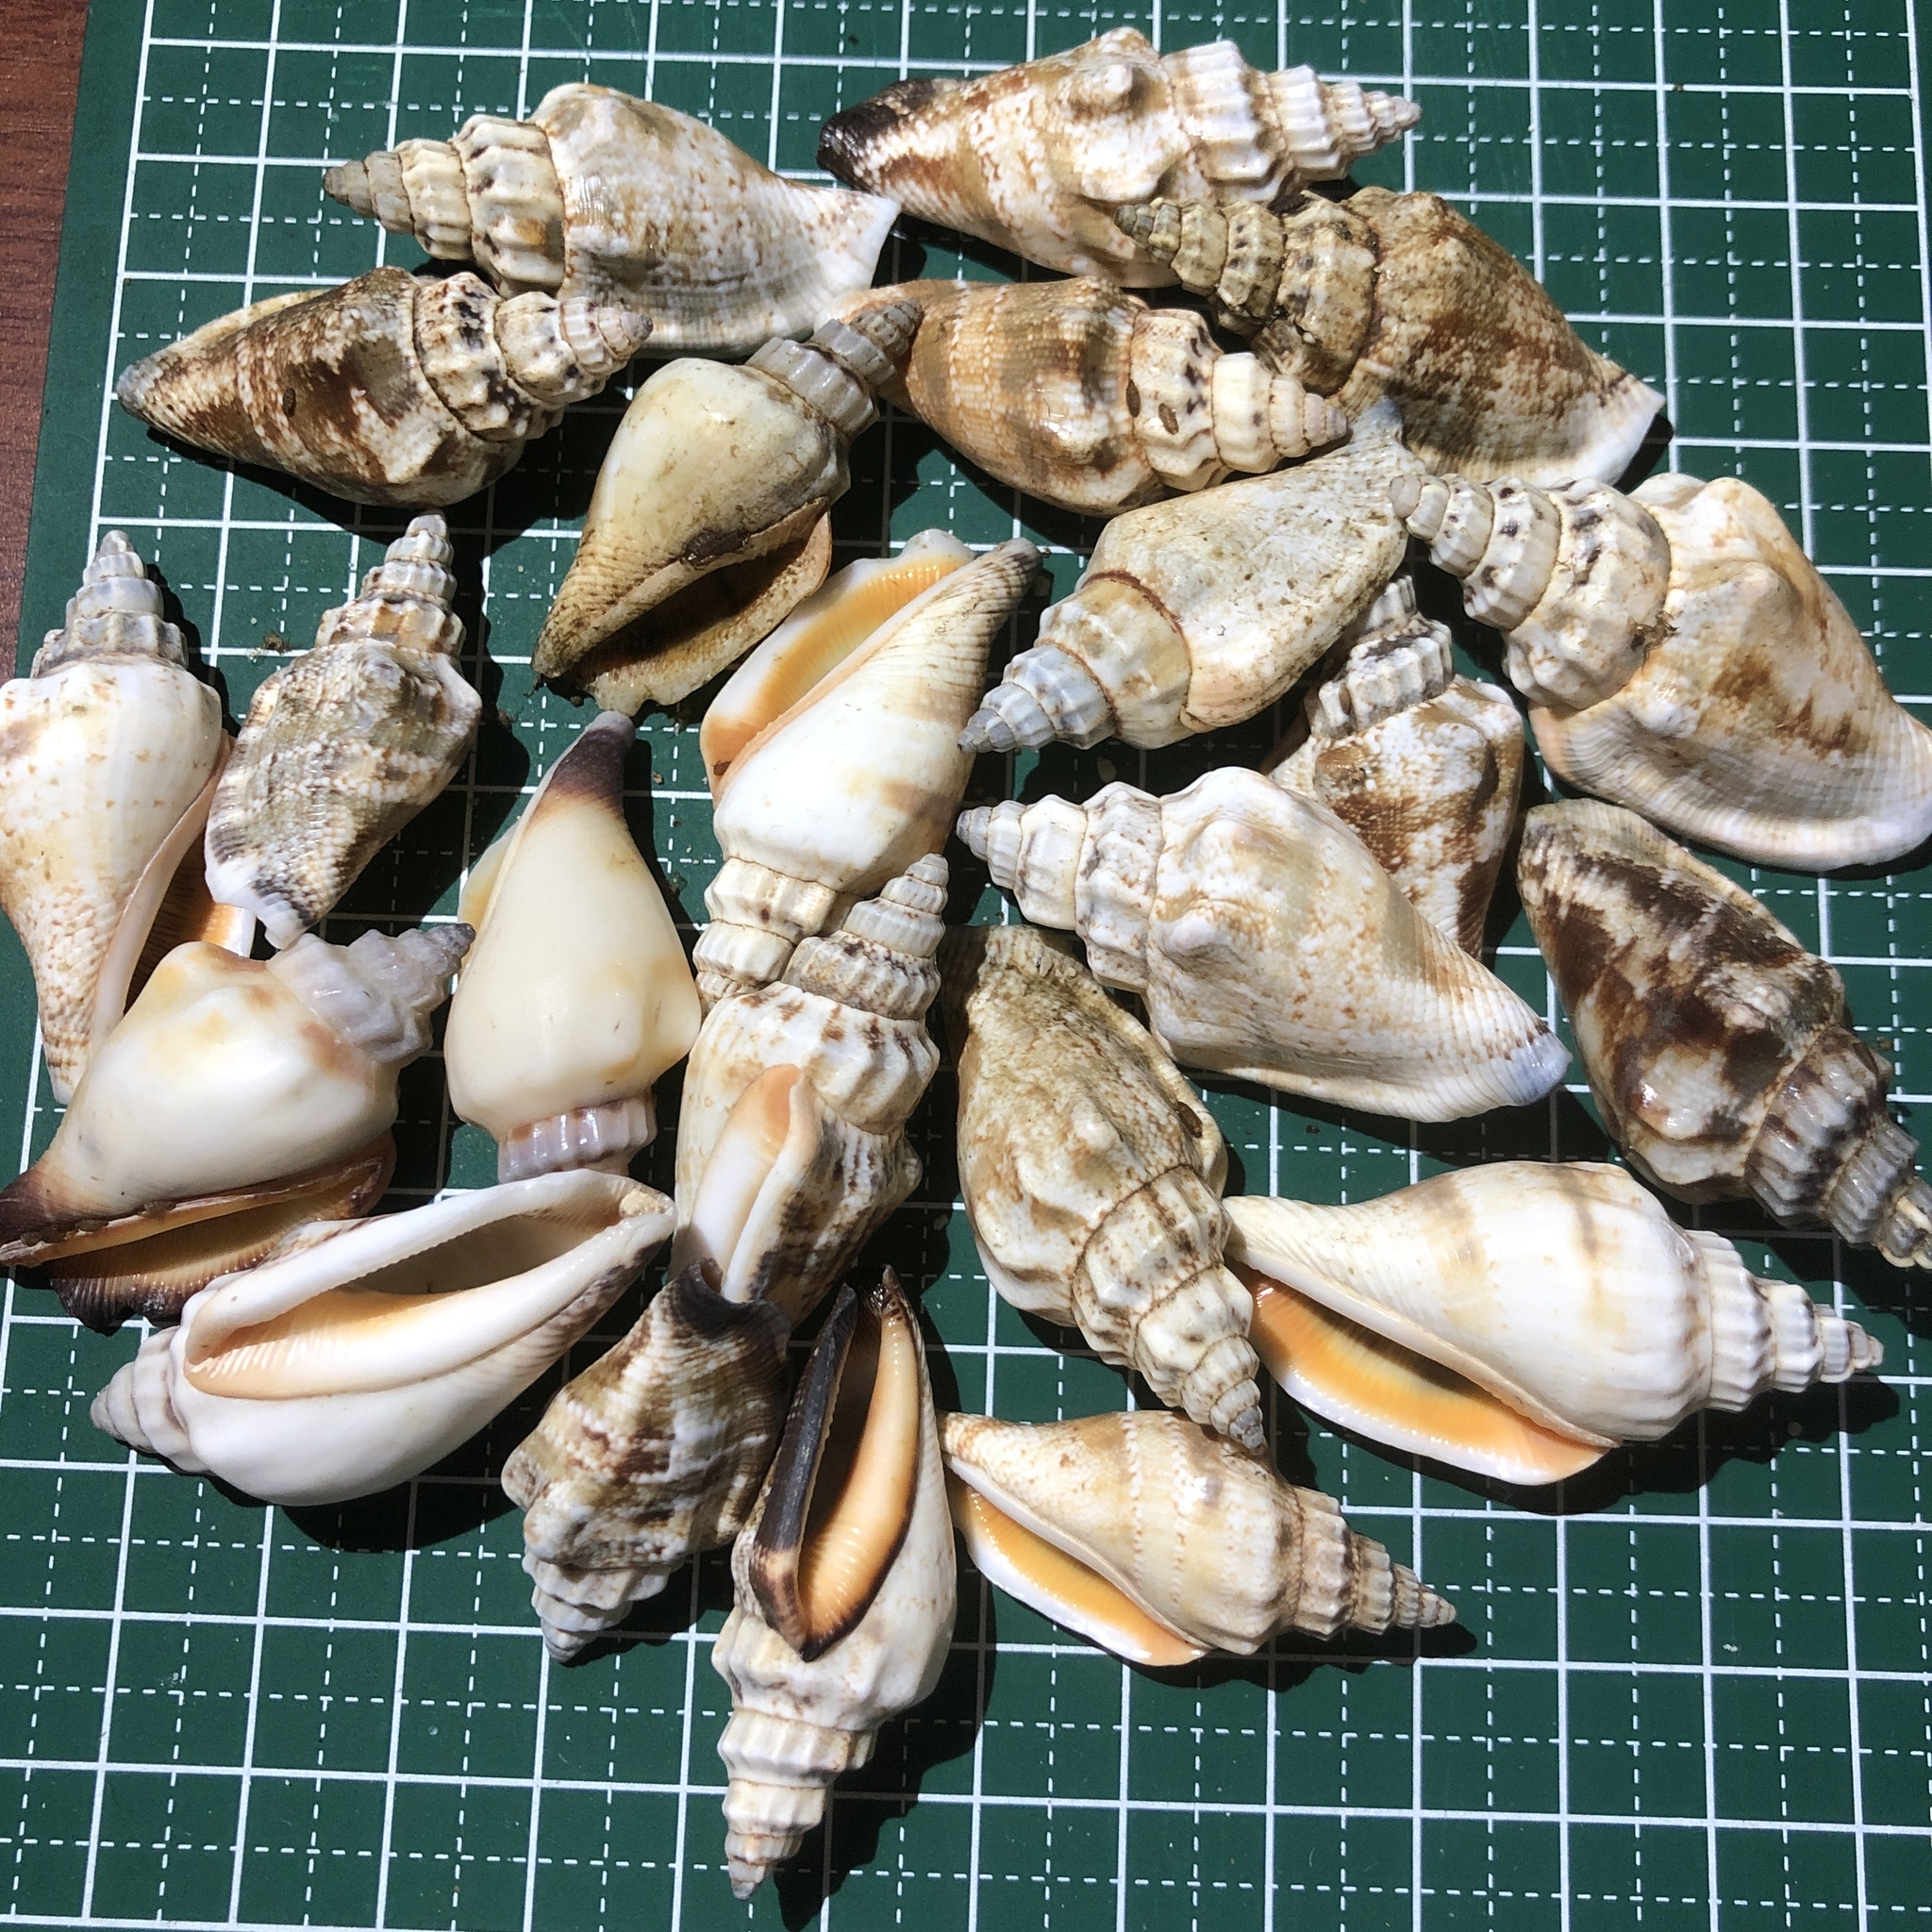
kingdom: Animalia
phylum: Mollusca
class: Gastropoda
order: Littorinimorpha
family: Strombidae
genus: Canarium
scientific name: Canarium urceus
